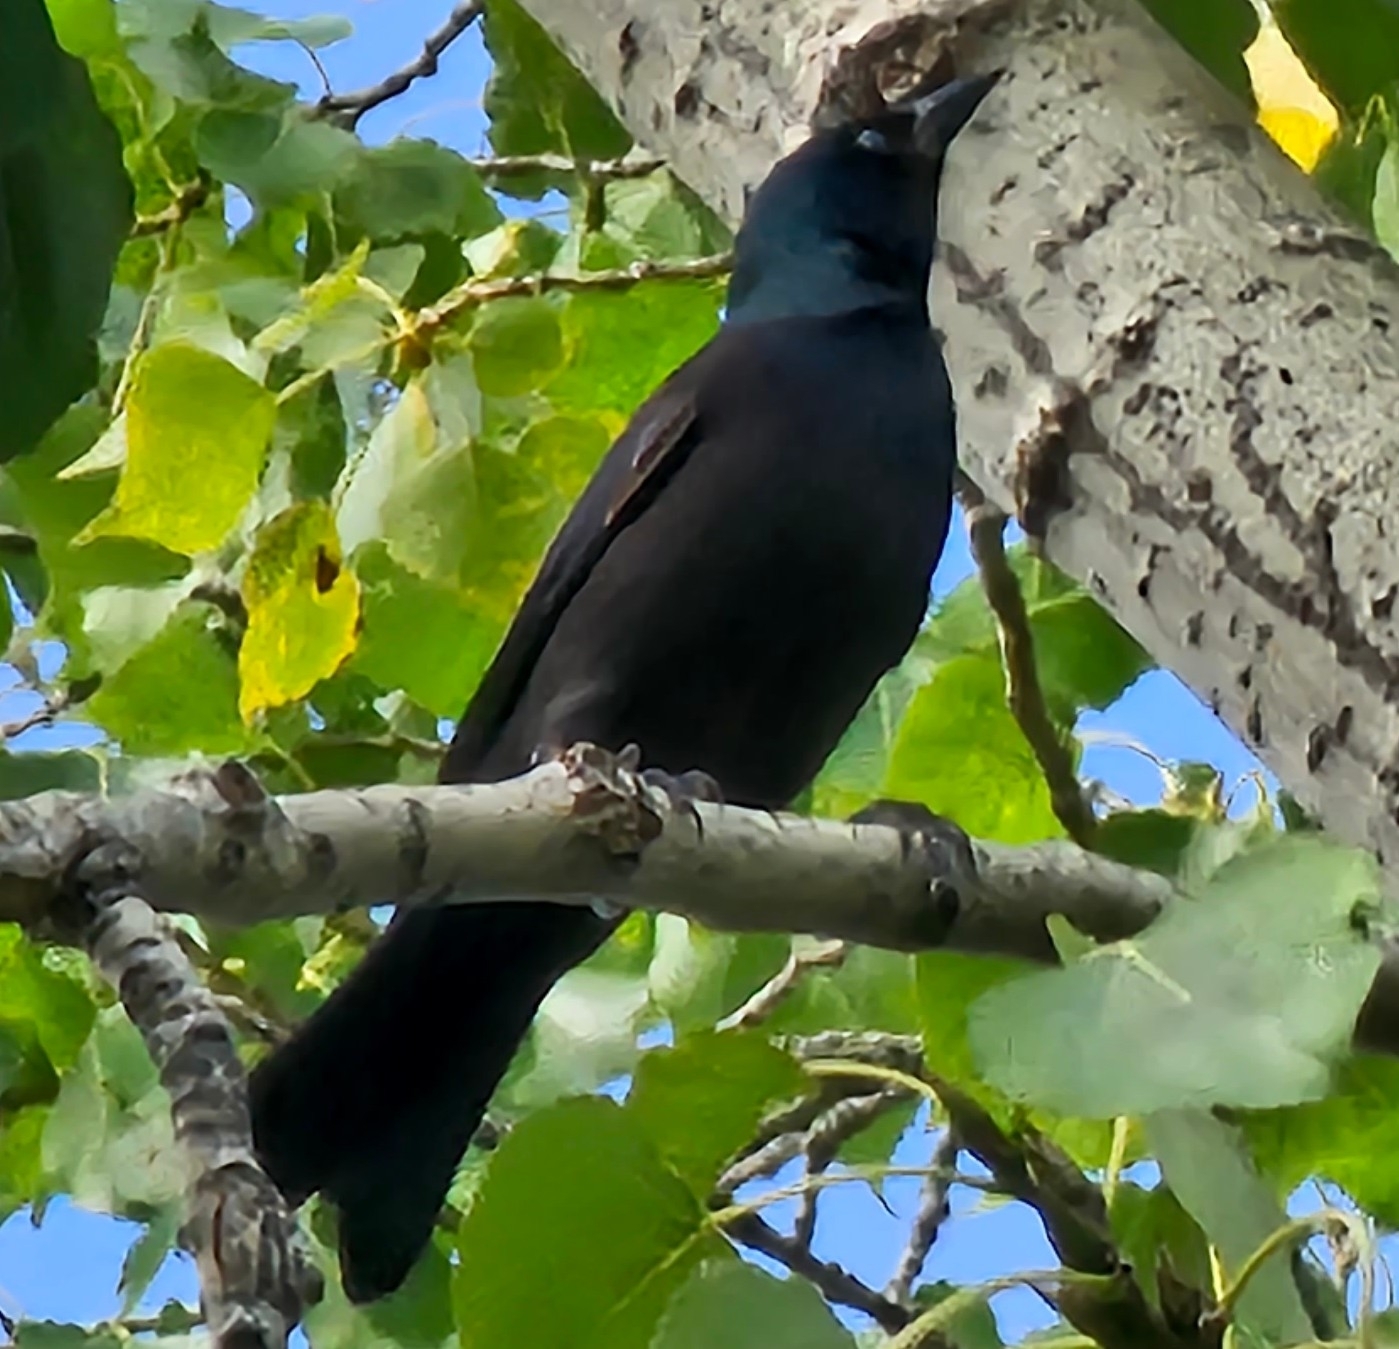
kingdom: Animalia
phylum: Chordata
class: Aves
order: Passeriformes
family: Icteridae
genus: Quiscalus
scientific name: Quiscalus quiscula
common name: Common grackle
